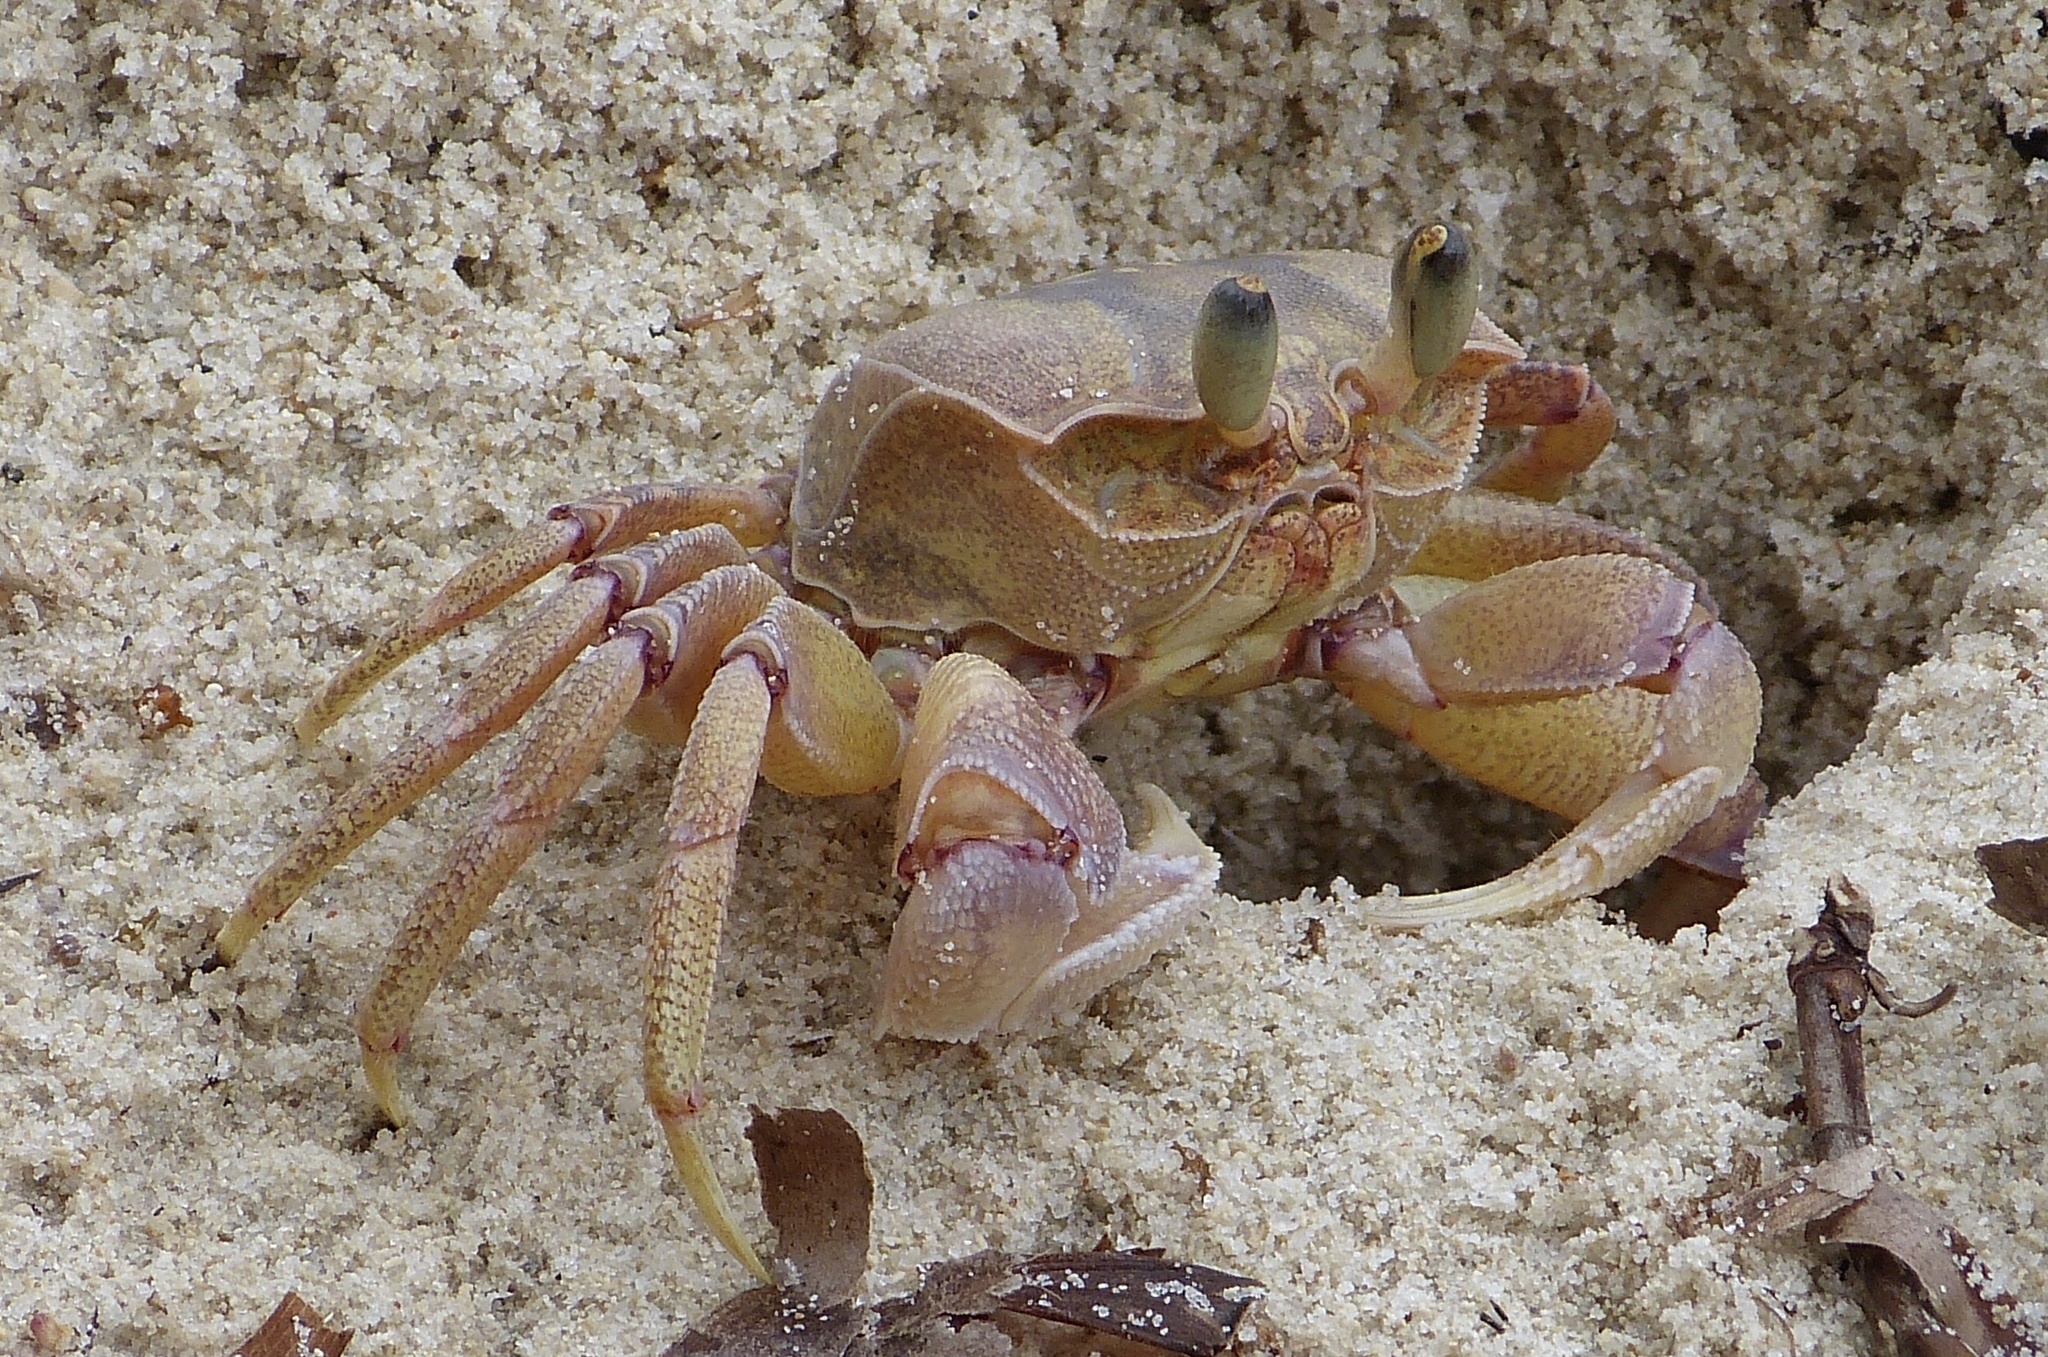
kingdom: Animalia
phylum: Arthropoda
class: Malacostraca
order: Decapoda
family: Ocypodidae
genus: Ocypode
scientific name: Ocypode ryderi
